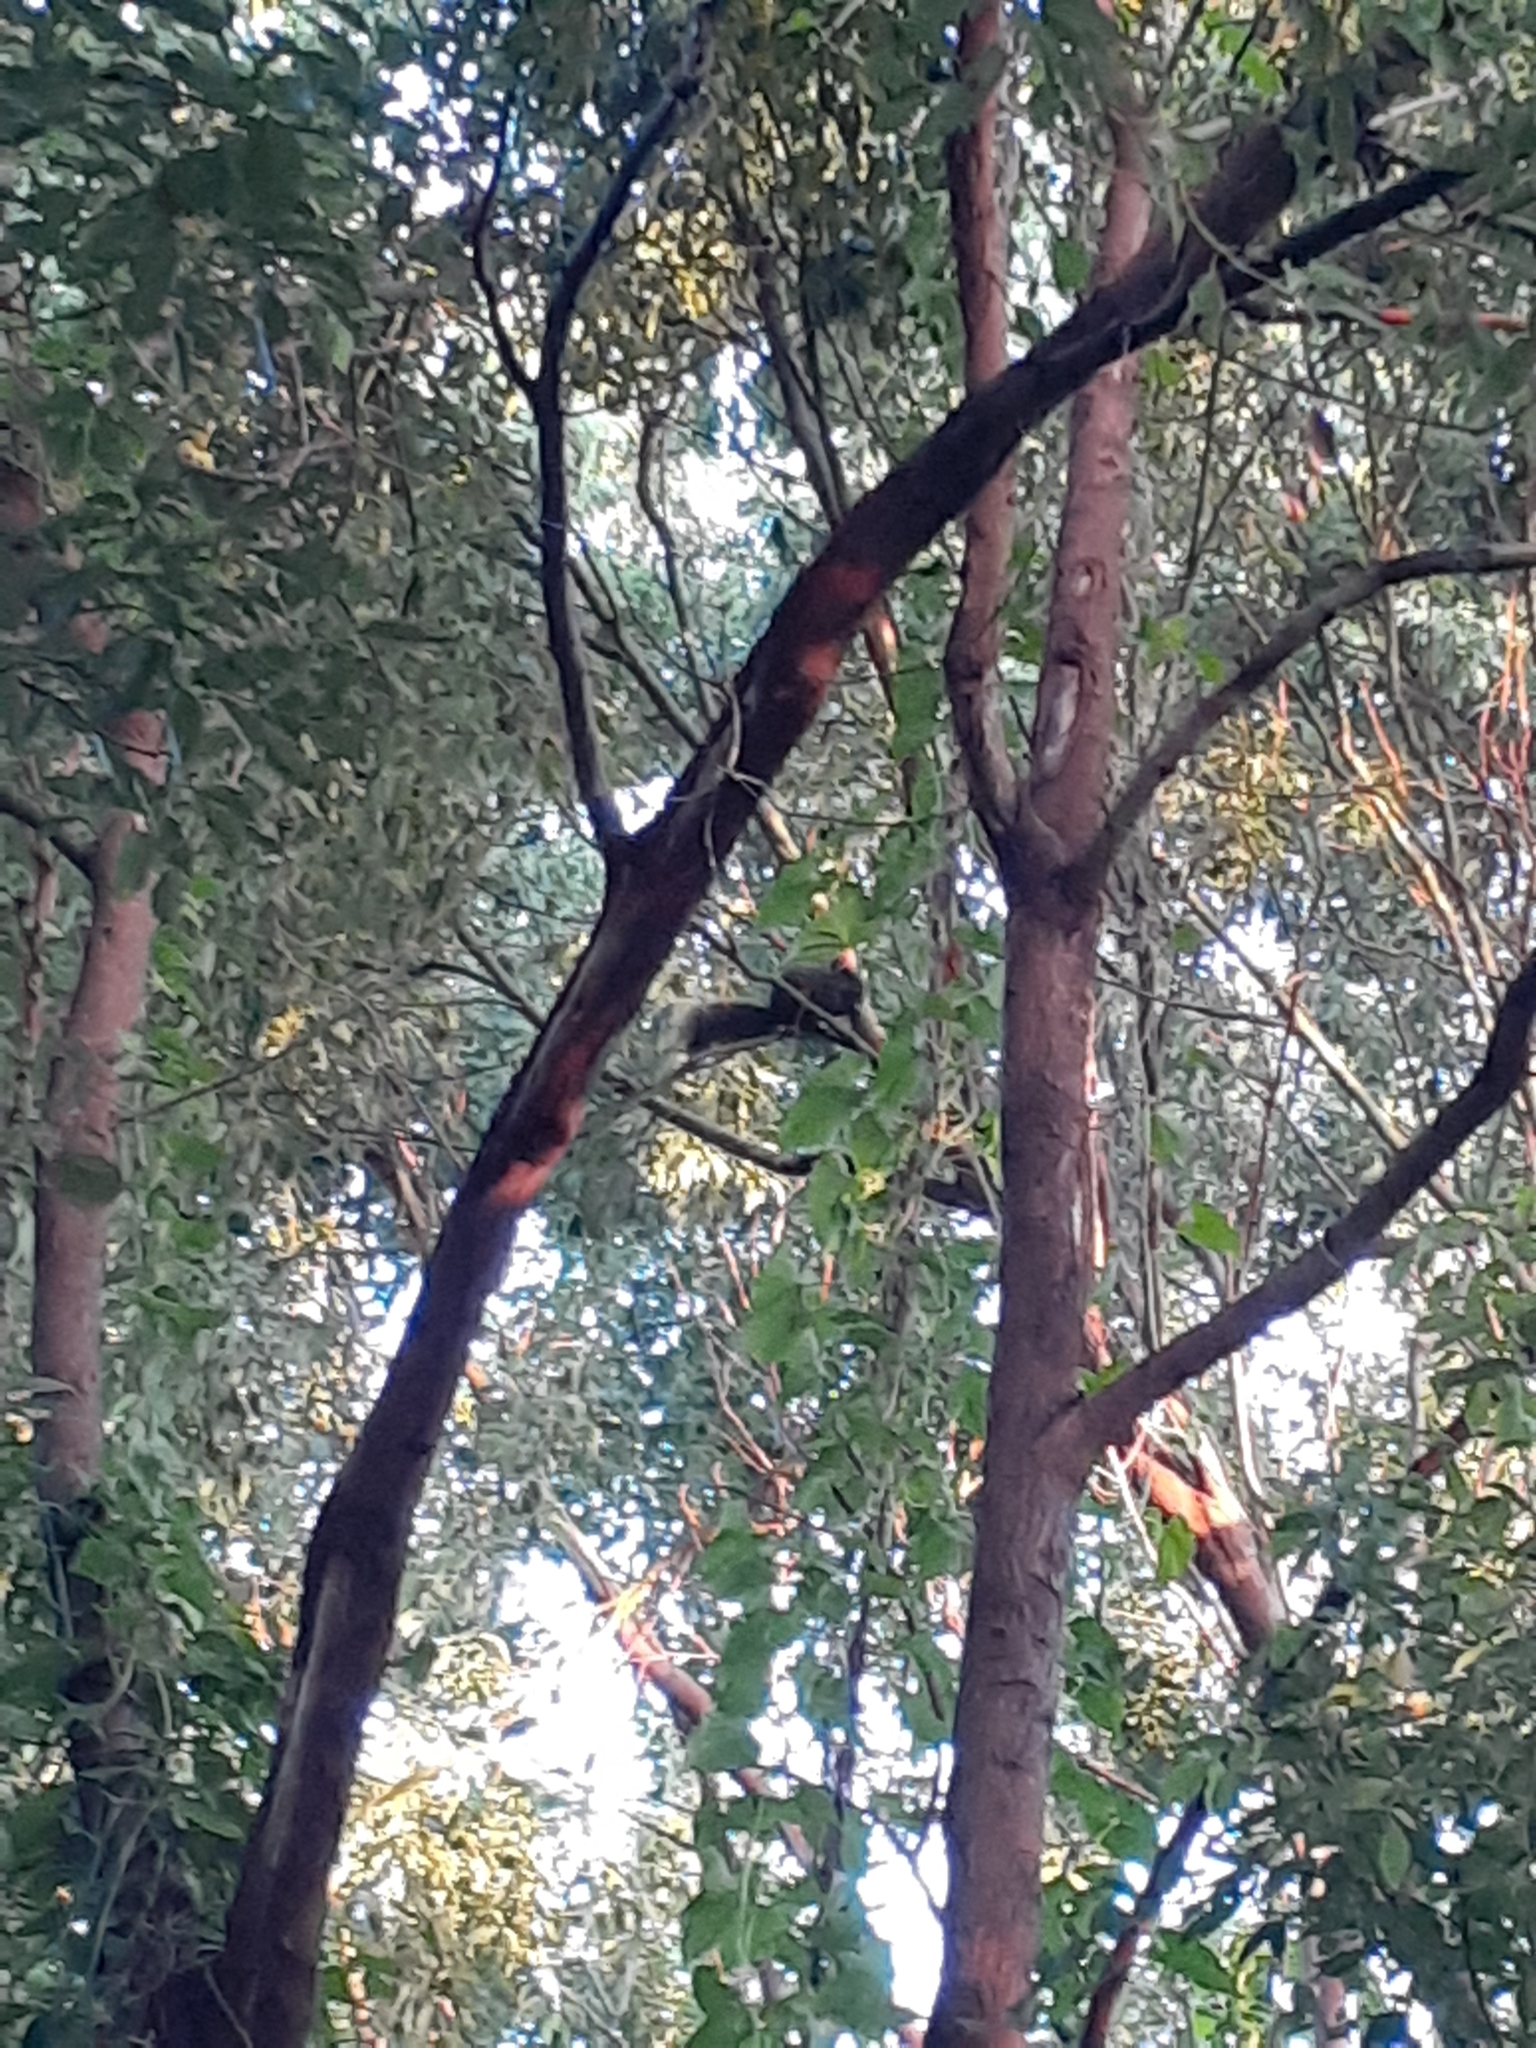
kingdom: Animalia
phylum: Chordata
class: Mammalia
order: Rodentia
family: Sciuridae
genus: Callosciurus
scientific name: Callosciurus erythraeus
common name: Pallas's squirrel
